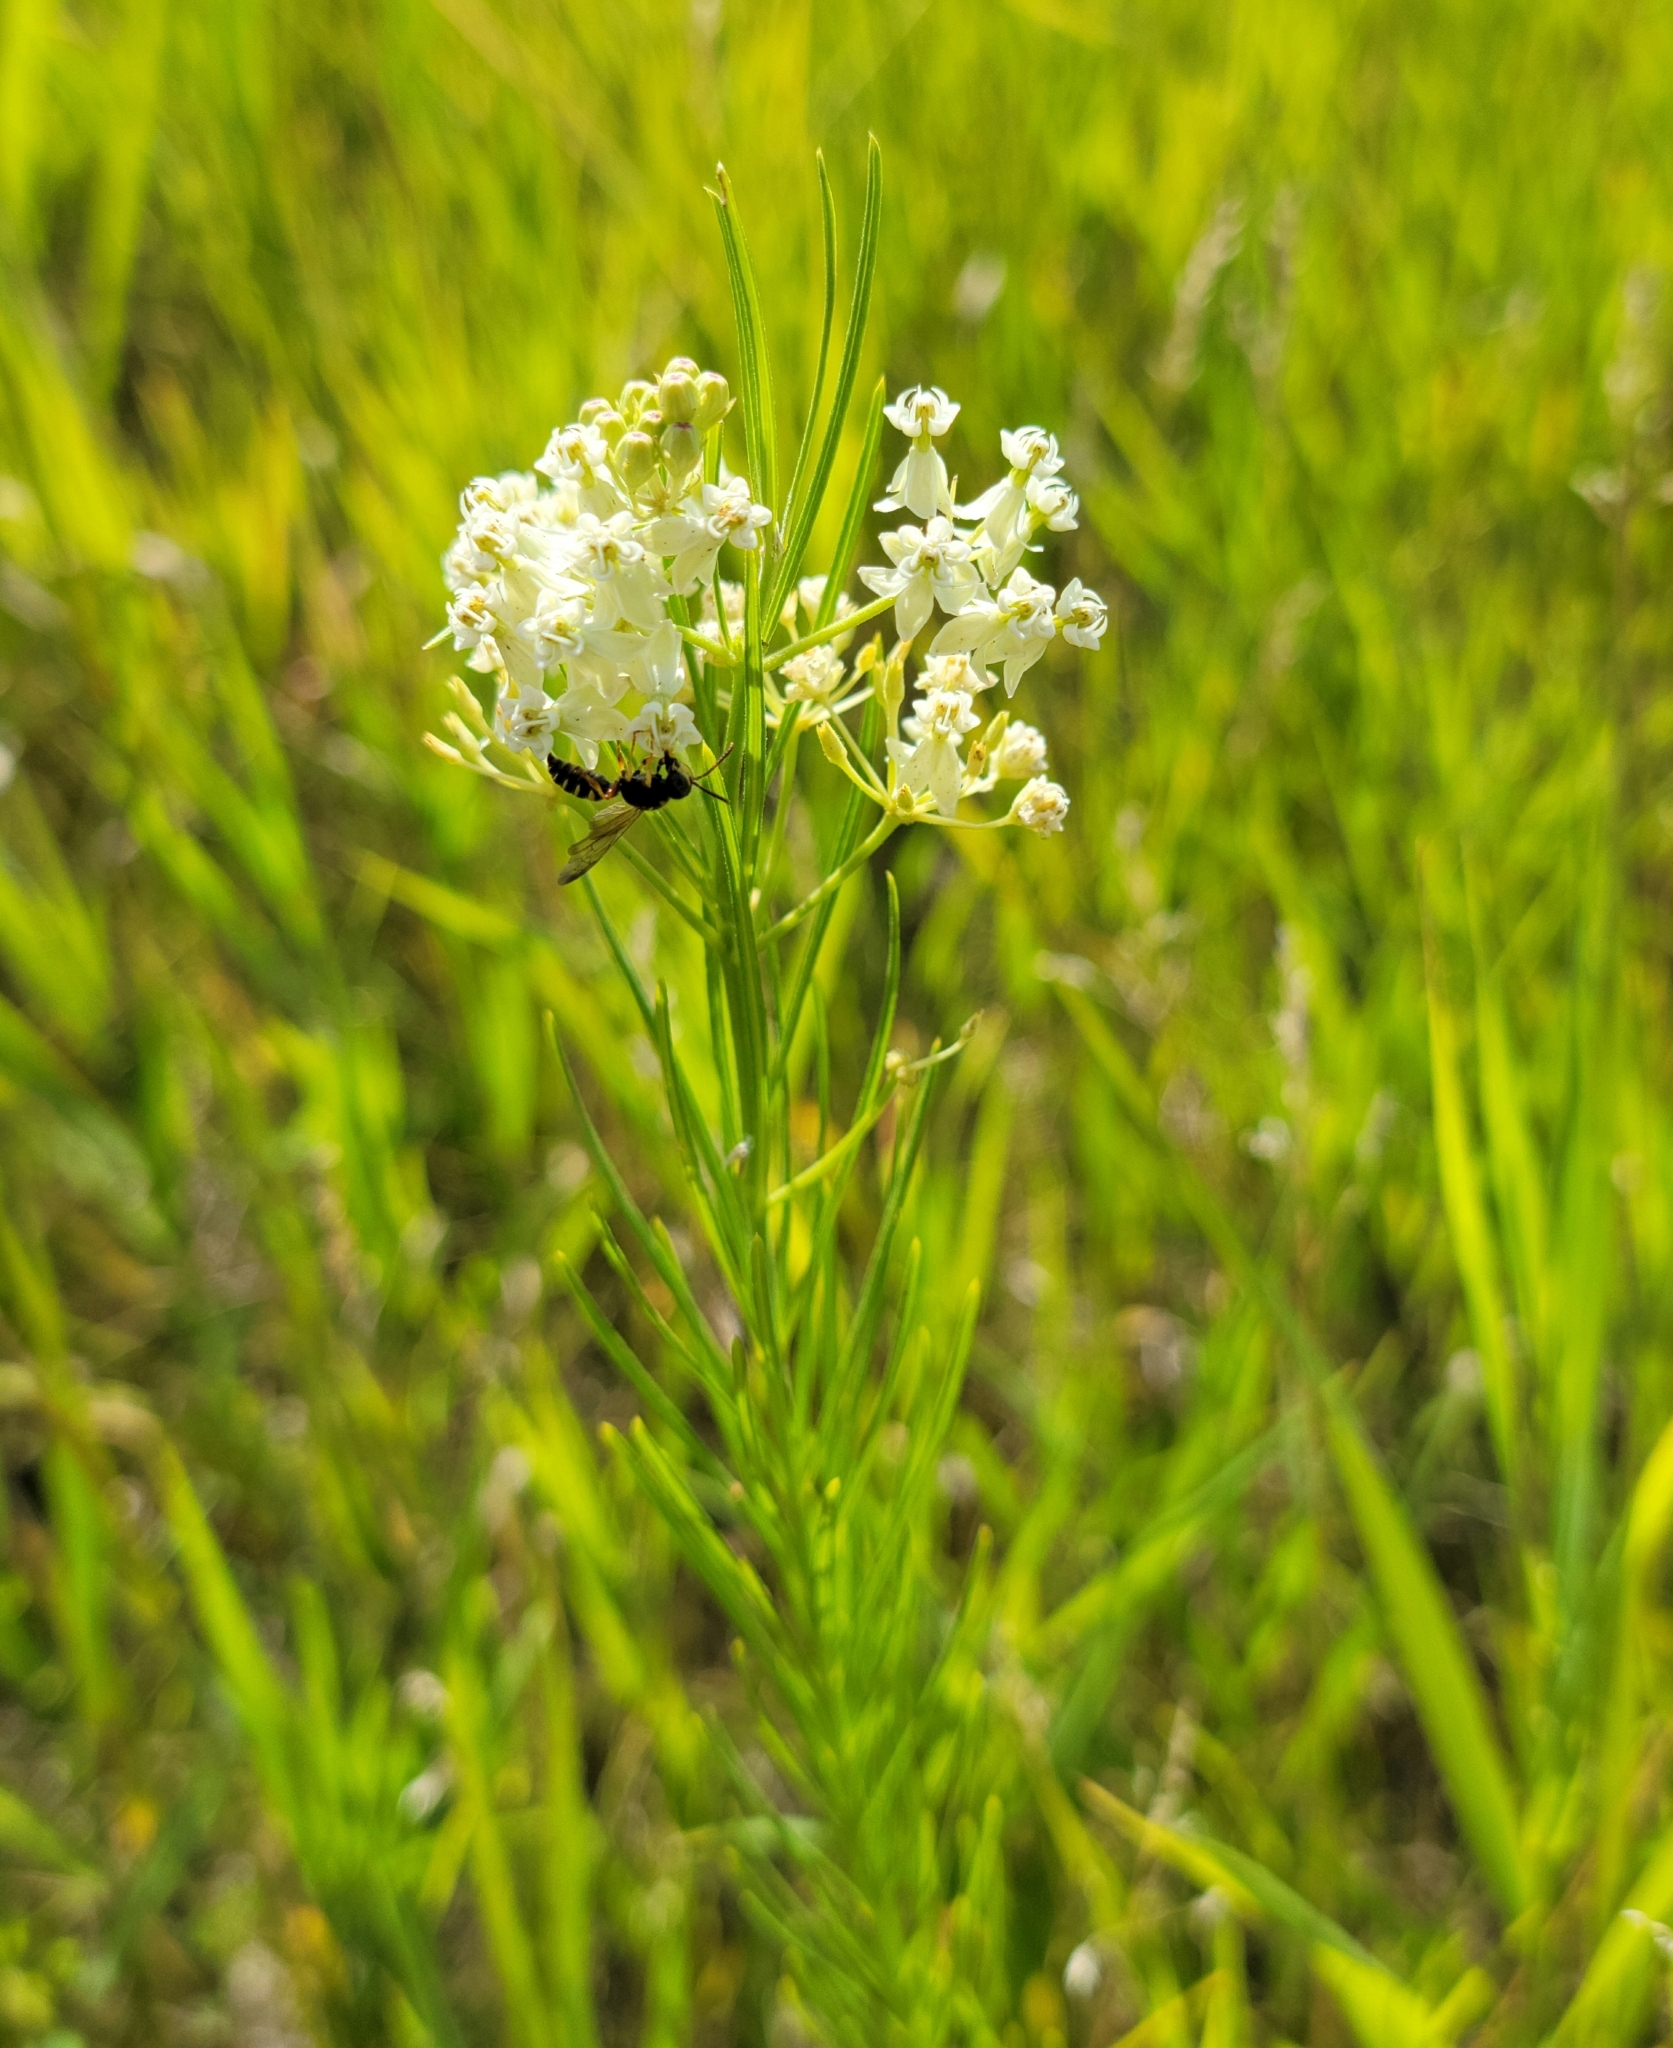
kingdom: Plantae
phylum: Tracheophyta
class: Magnoliopsida
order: Gentianales
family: Apocynaceae
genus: Asclepias
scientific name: Asclepias verticillata
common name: Eastern whorled milkweed
